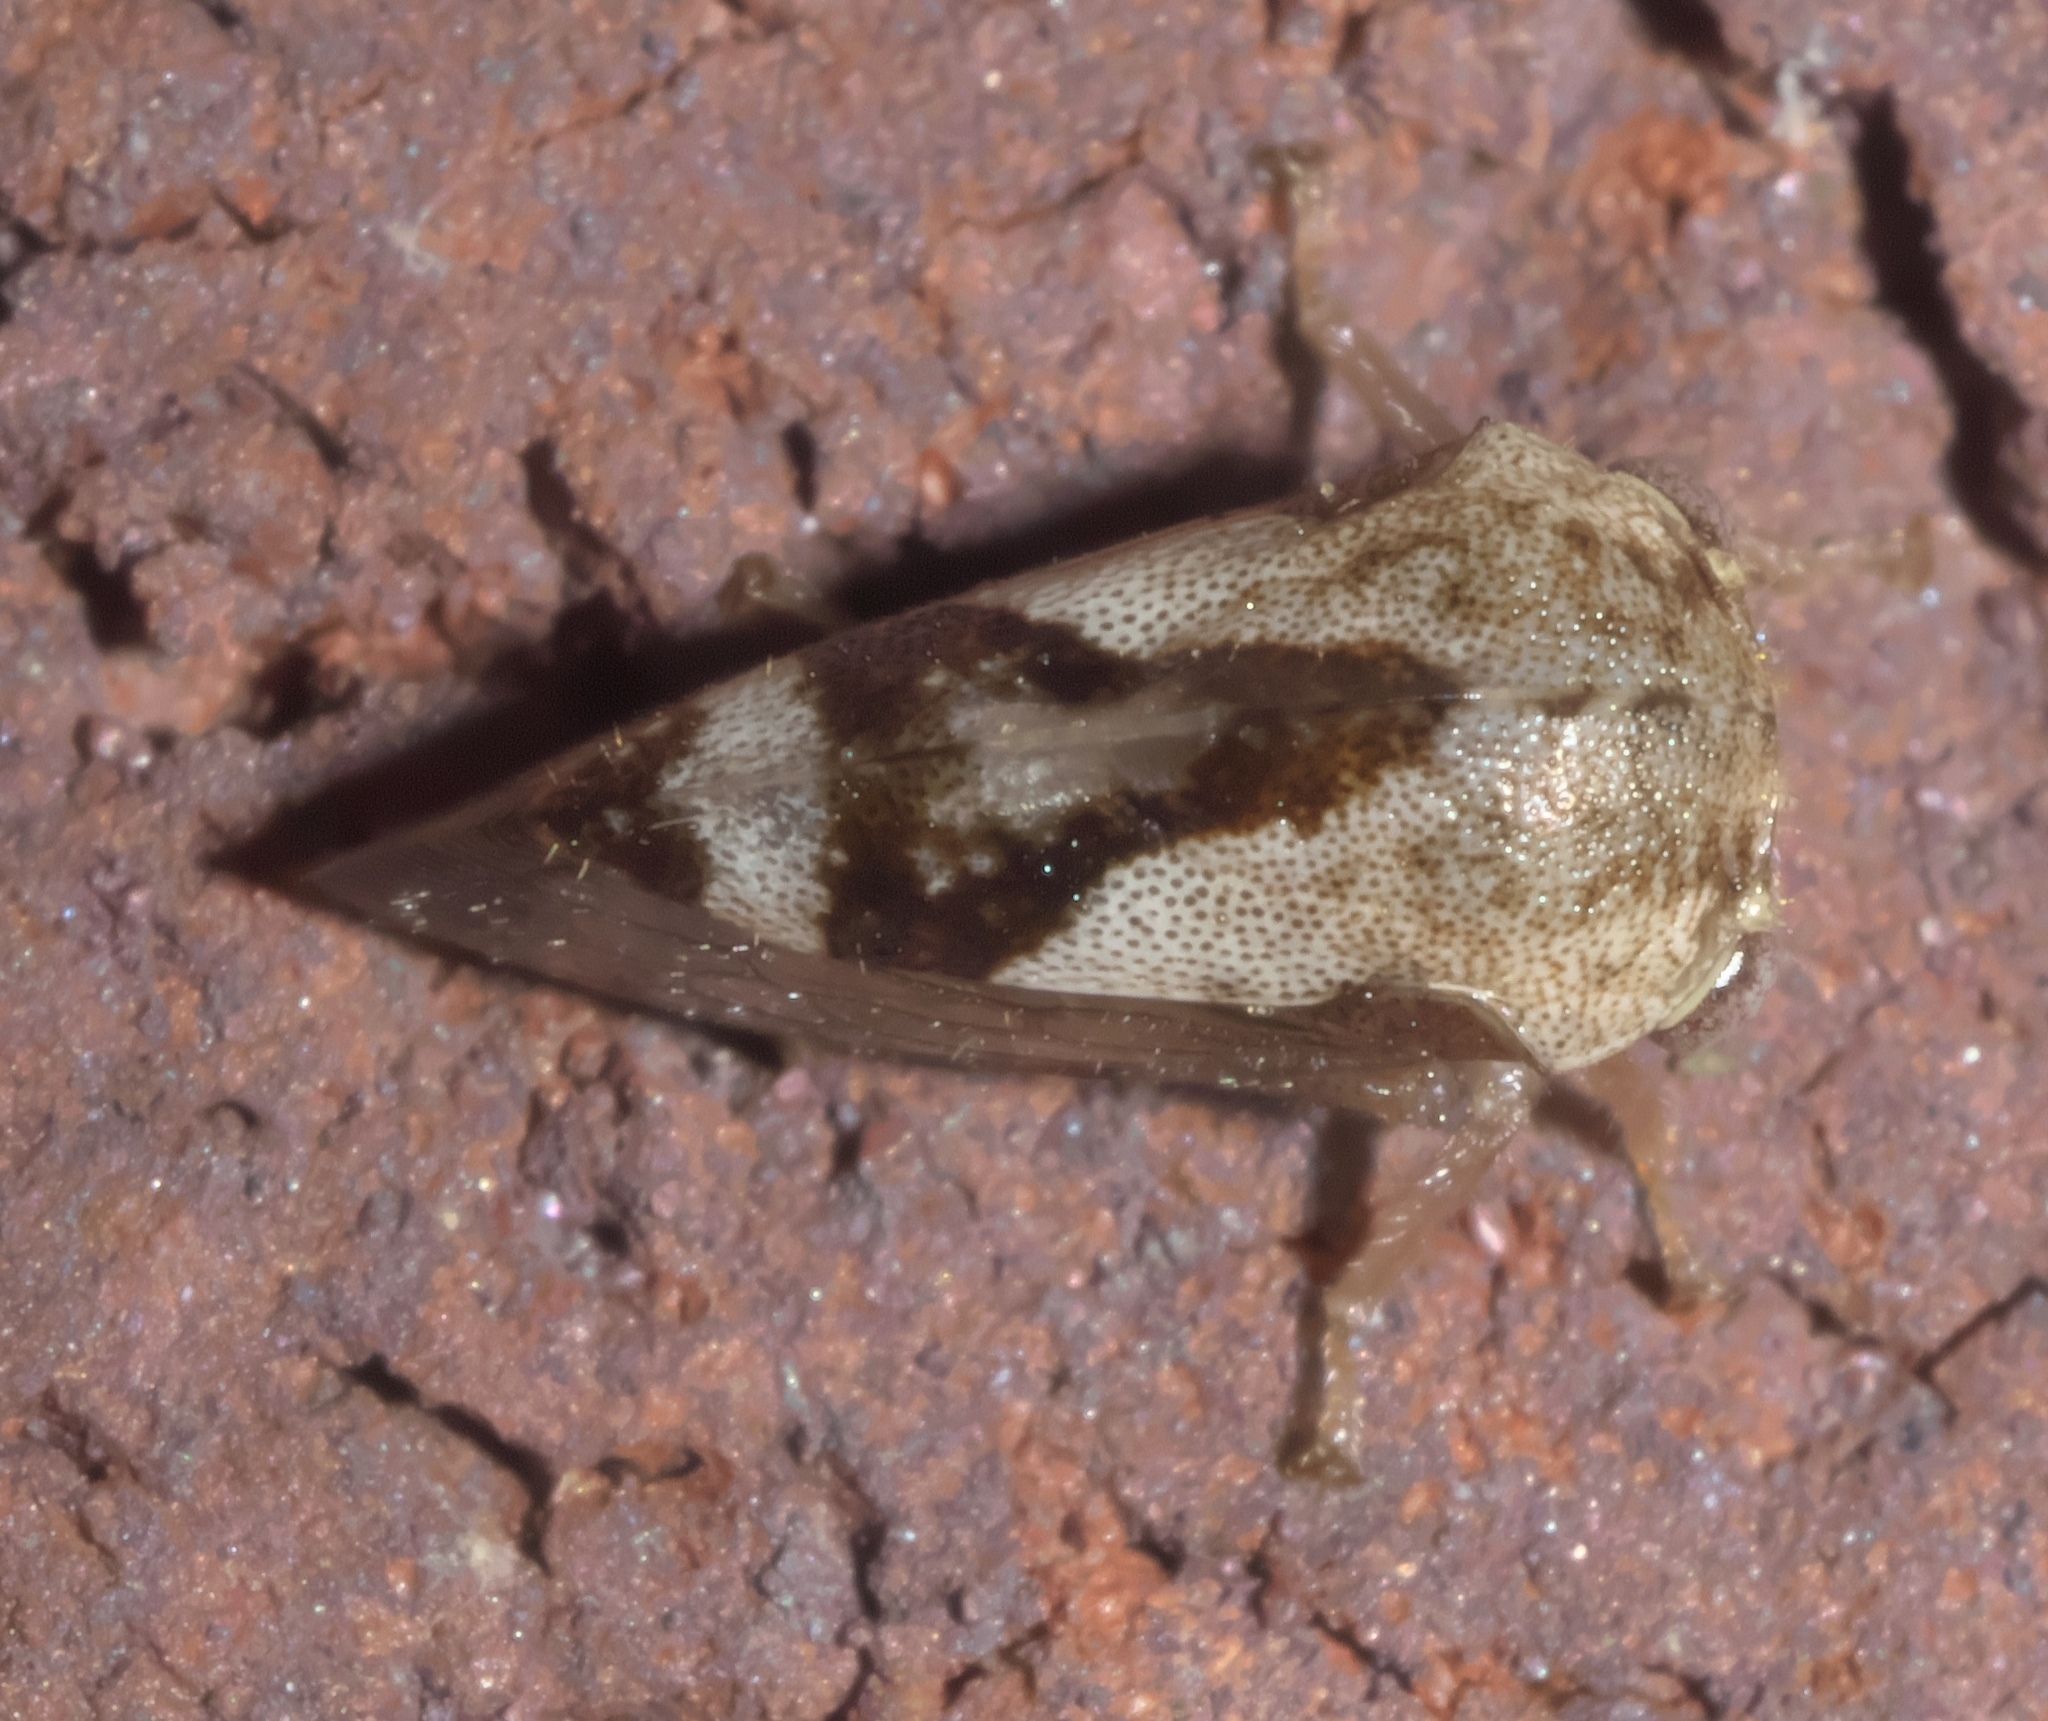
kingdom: Animalia
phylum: Arthropoda
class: Insecta
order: Hemiptera
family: Membracidae
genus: Helonica
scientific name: Helonica excelsa
